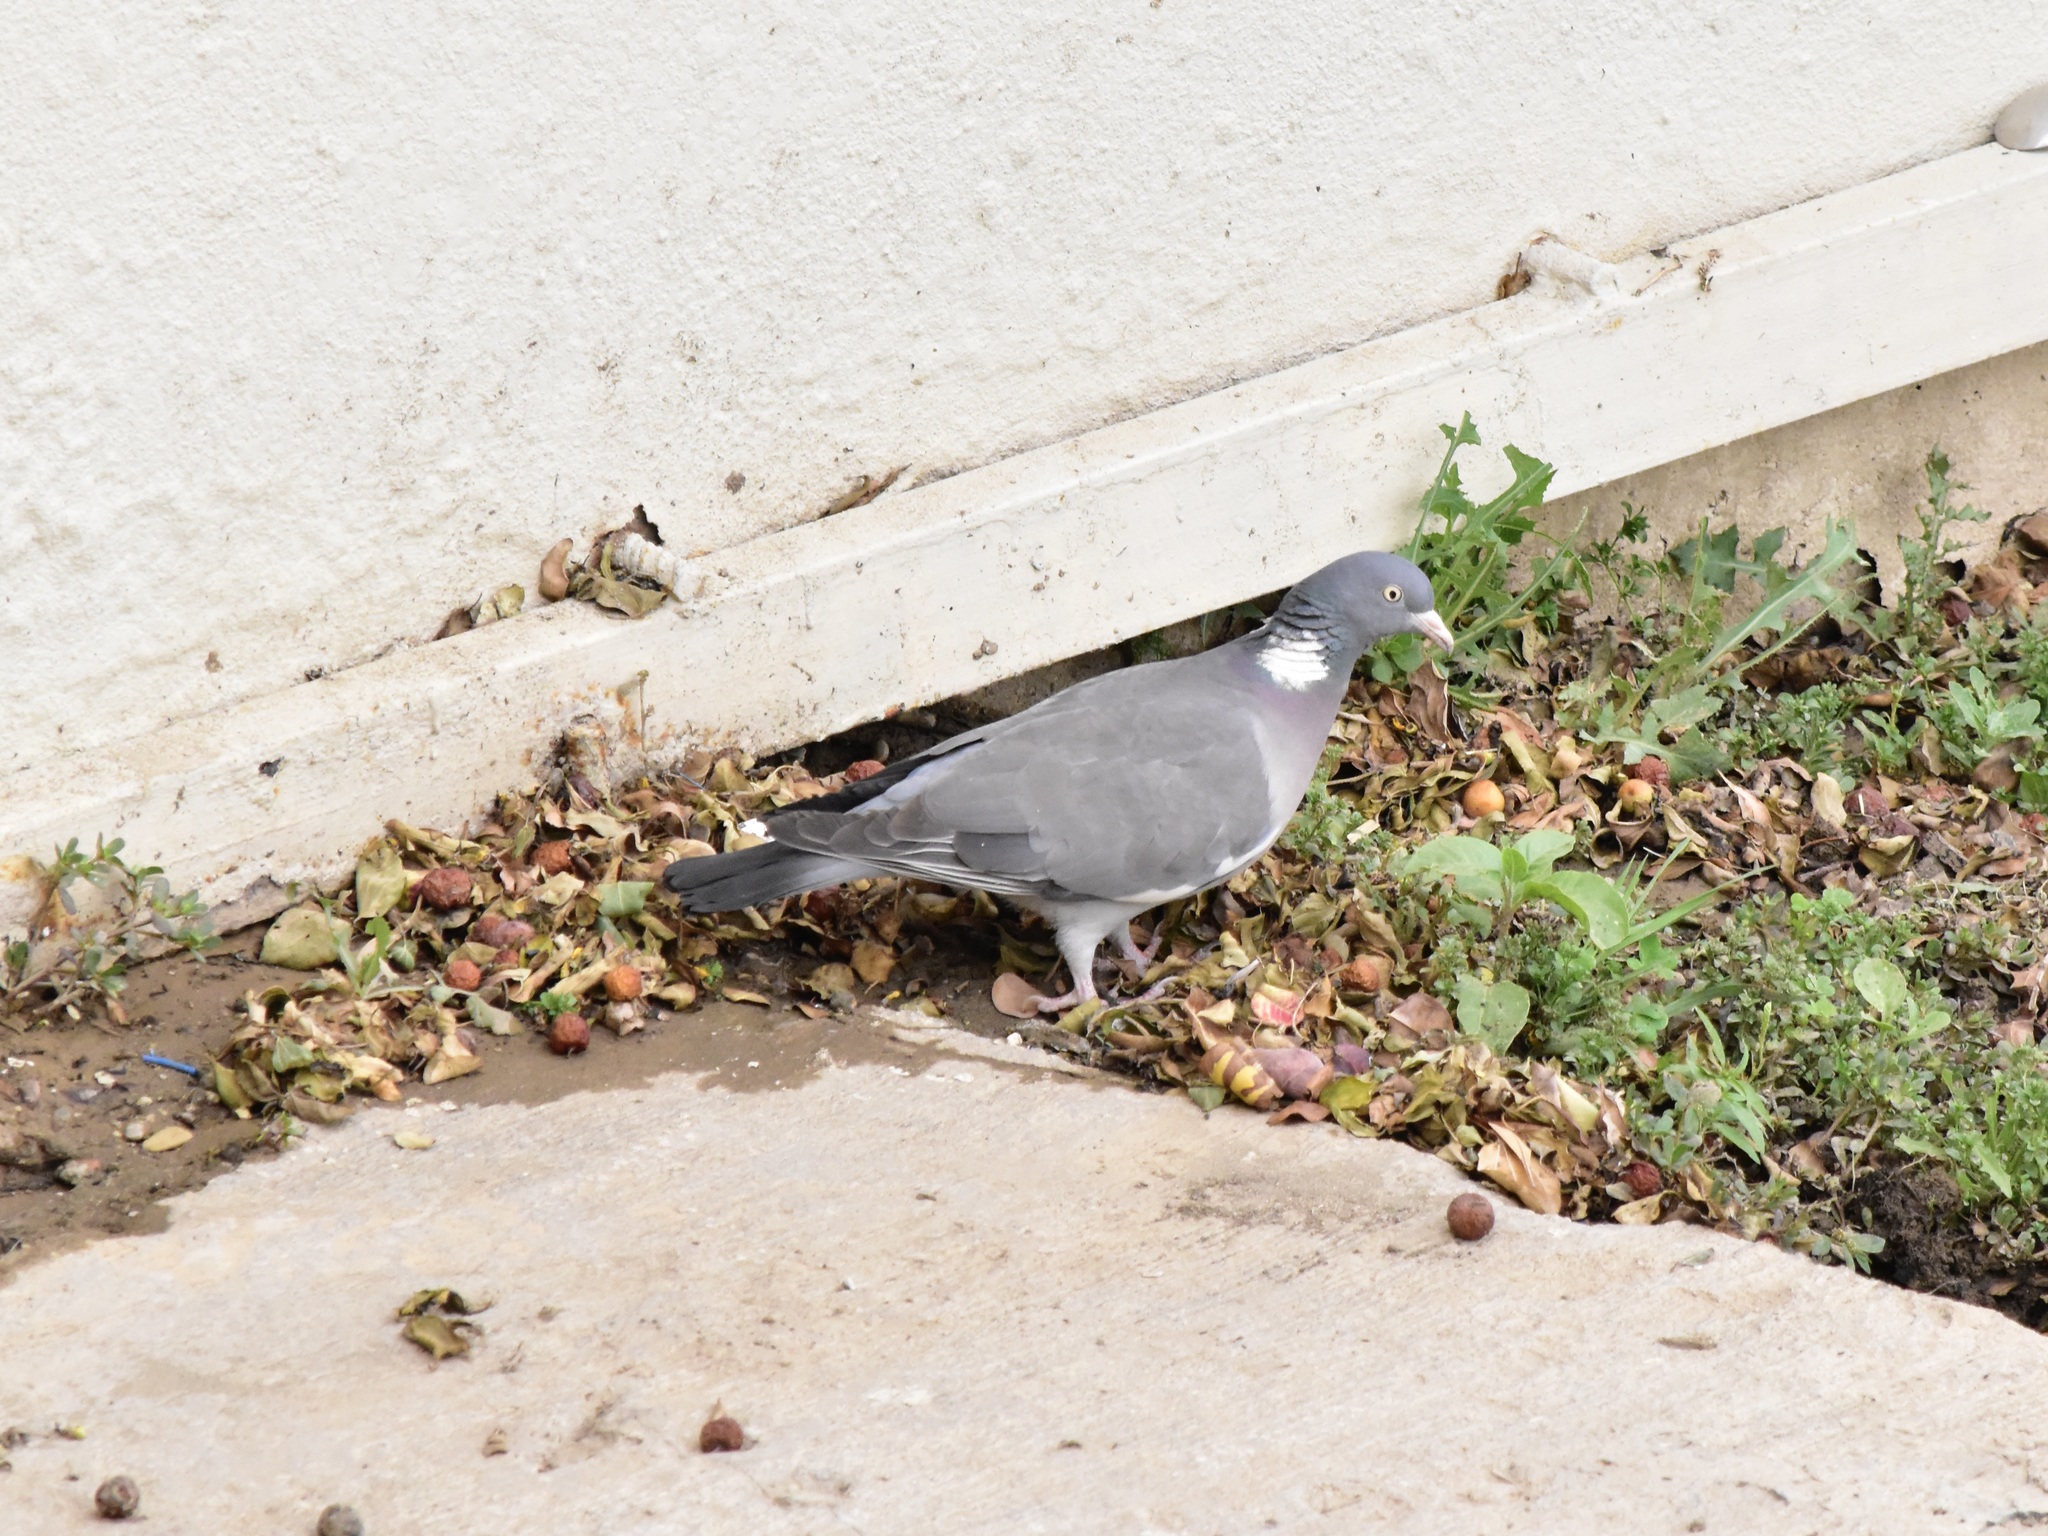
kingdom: Animalia
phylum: Chordata
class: Aves
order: Columbiformes
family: Columbidae
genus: Columba
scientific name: Columba palumbus
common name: Common wood pigeon
